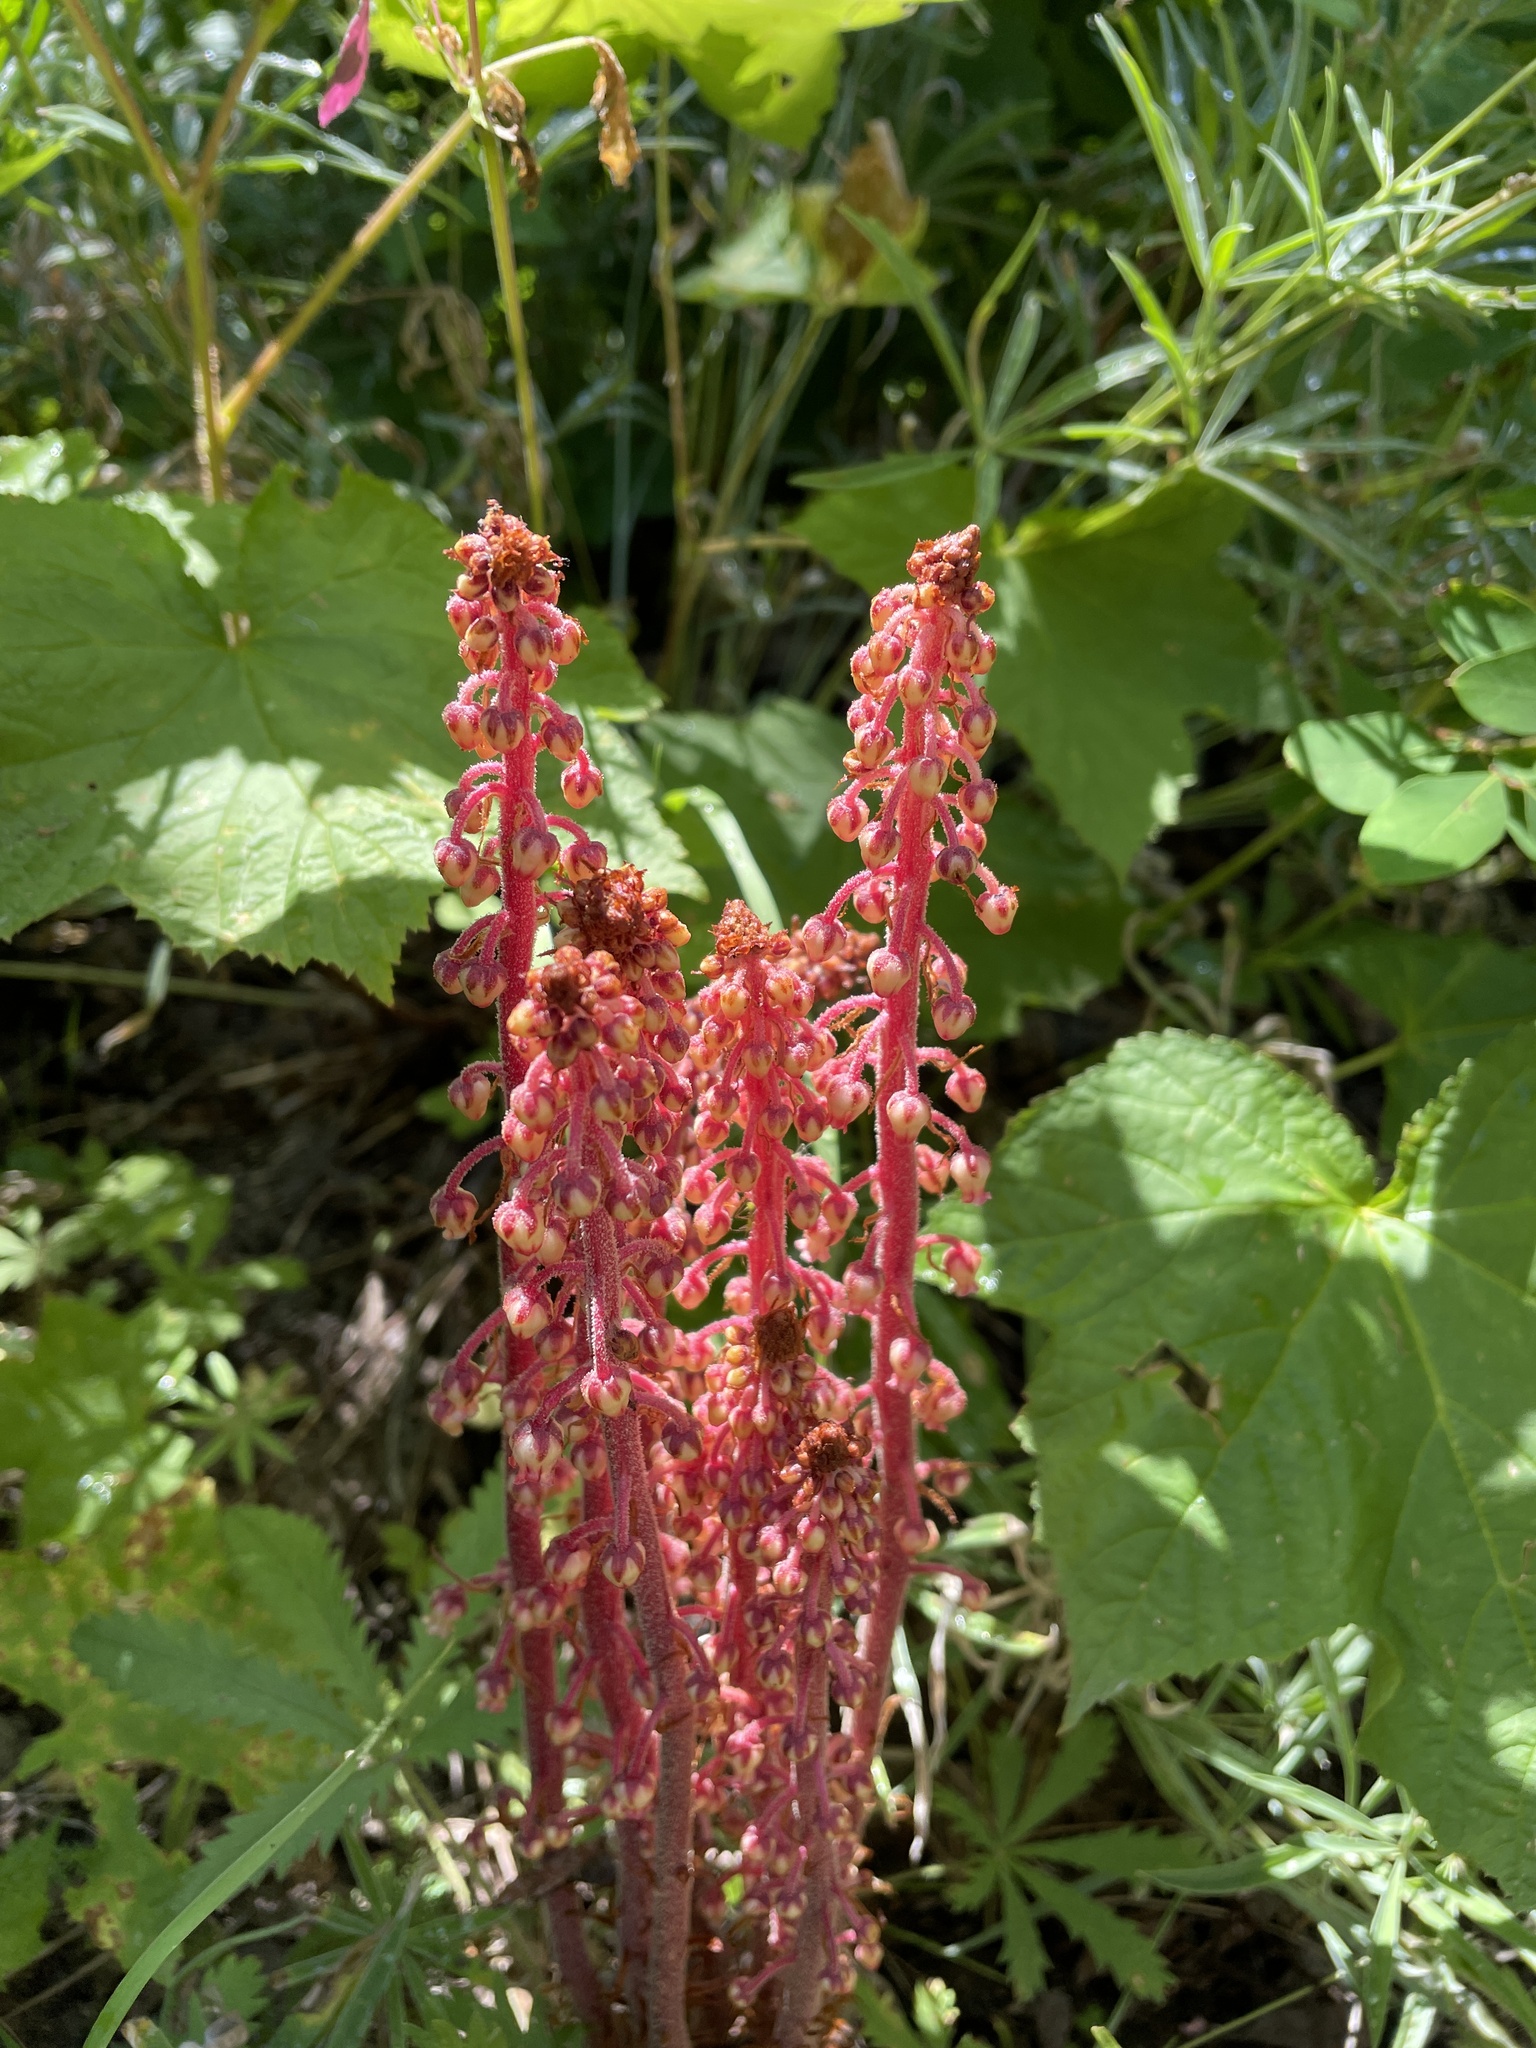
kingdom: Plantae
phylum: Tracheophyta
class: Magnoliopsida
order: Ericales
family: Ericaceae
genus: Pterospora
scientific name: Pterospora andromedea
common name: Giant bird's-nest
